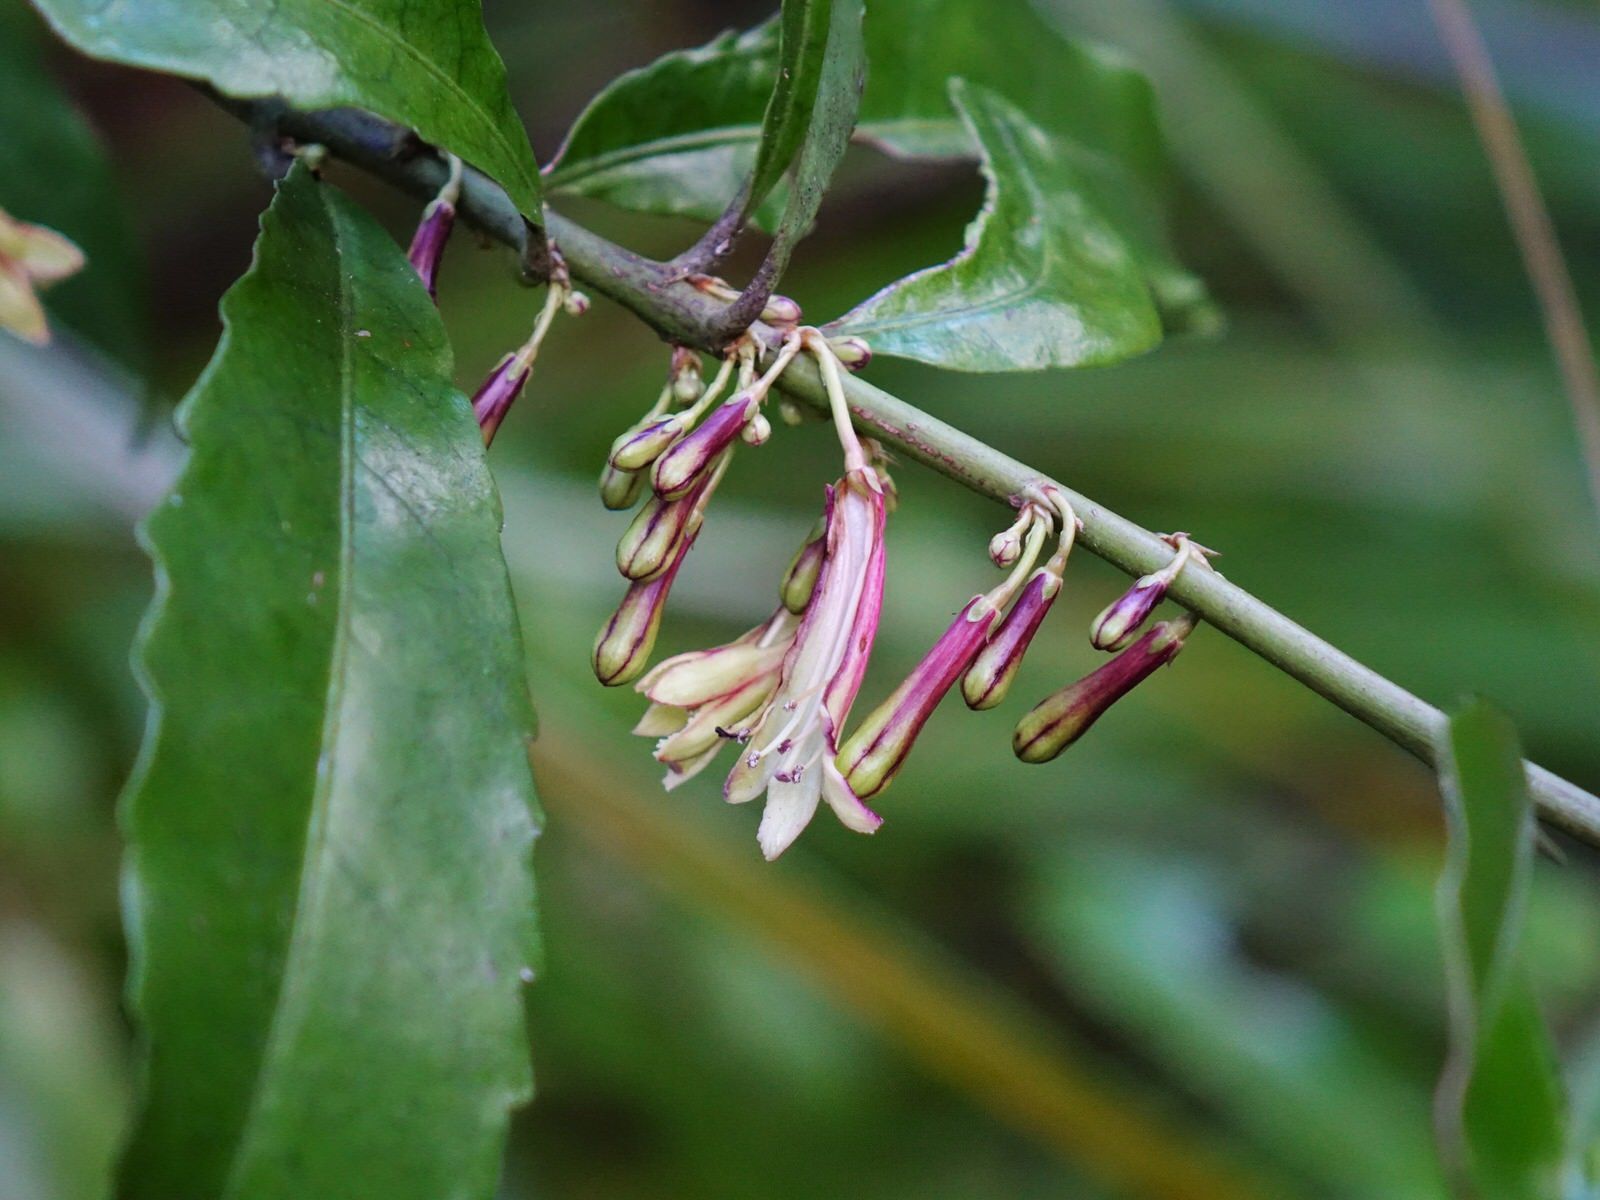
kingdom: Plantae
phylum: Tracheophyta
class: Magnoliopsida
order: Asterales
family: Alseuosmiaceae
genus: Alseuosmia
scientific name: Alseuosmia macrophylla
